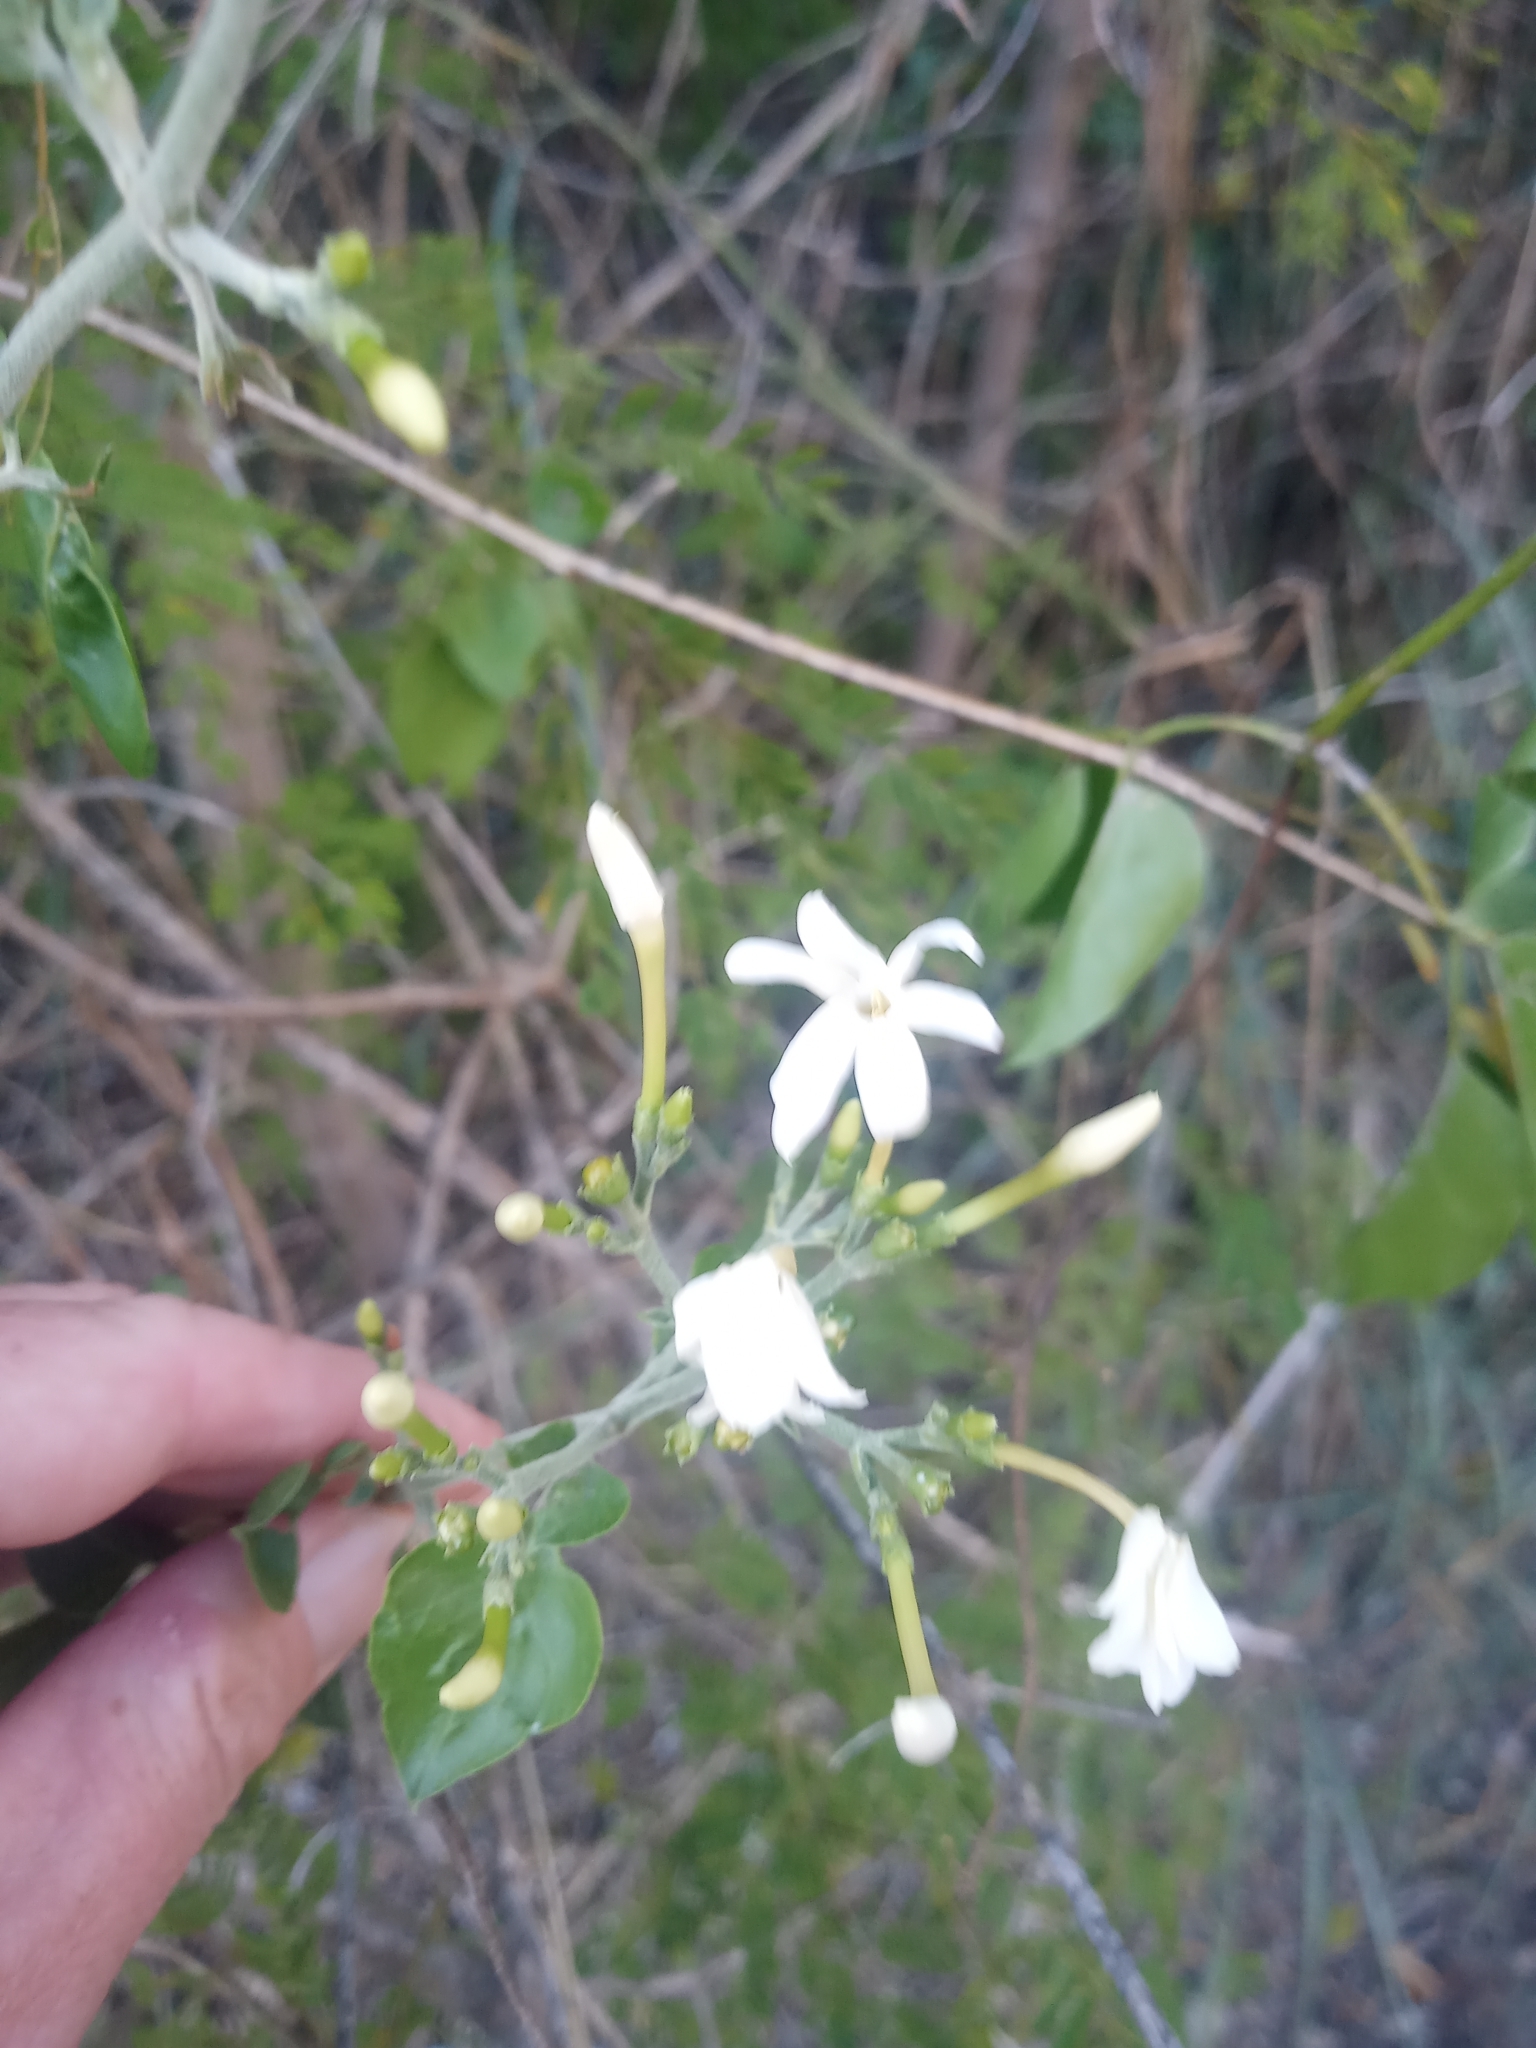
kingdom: Plantae
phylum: Tracheophyta
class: Magnoliopsida
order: Lamiales
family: Oleaceae
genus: Jasminum
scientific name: Jasminum fluminense
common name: Brazilian jasmine
